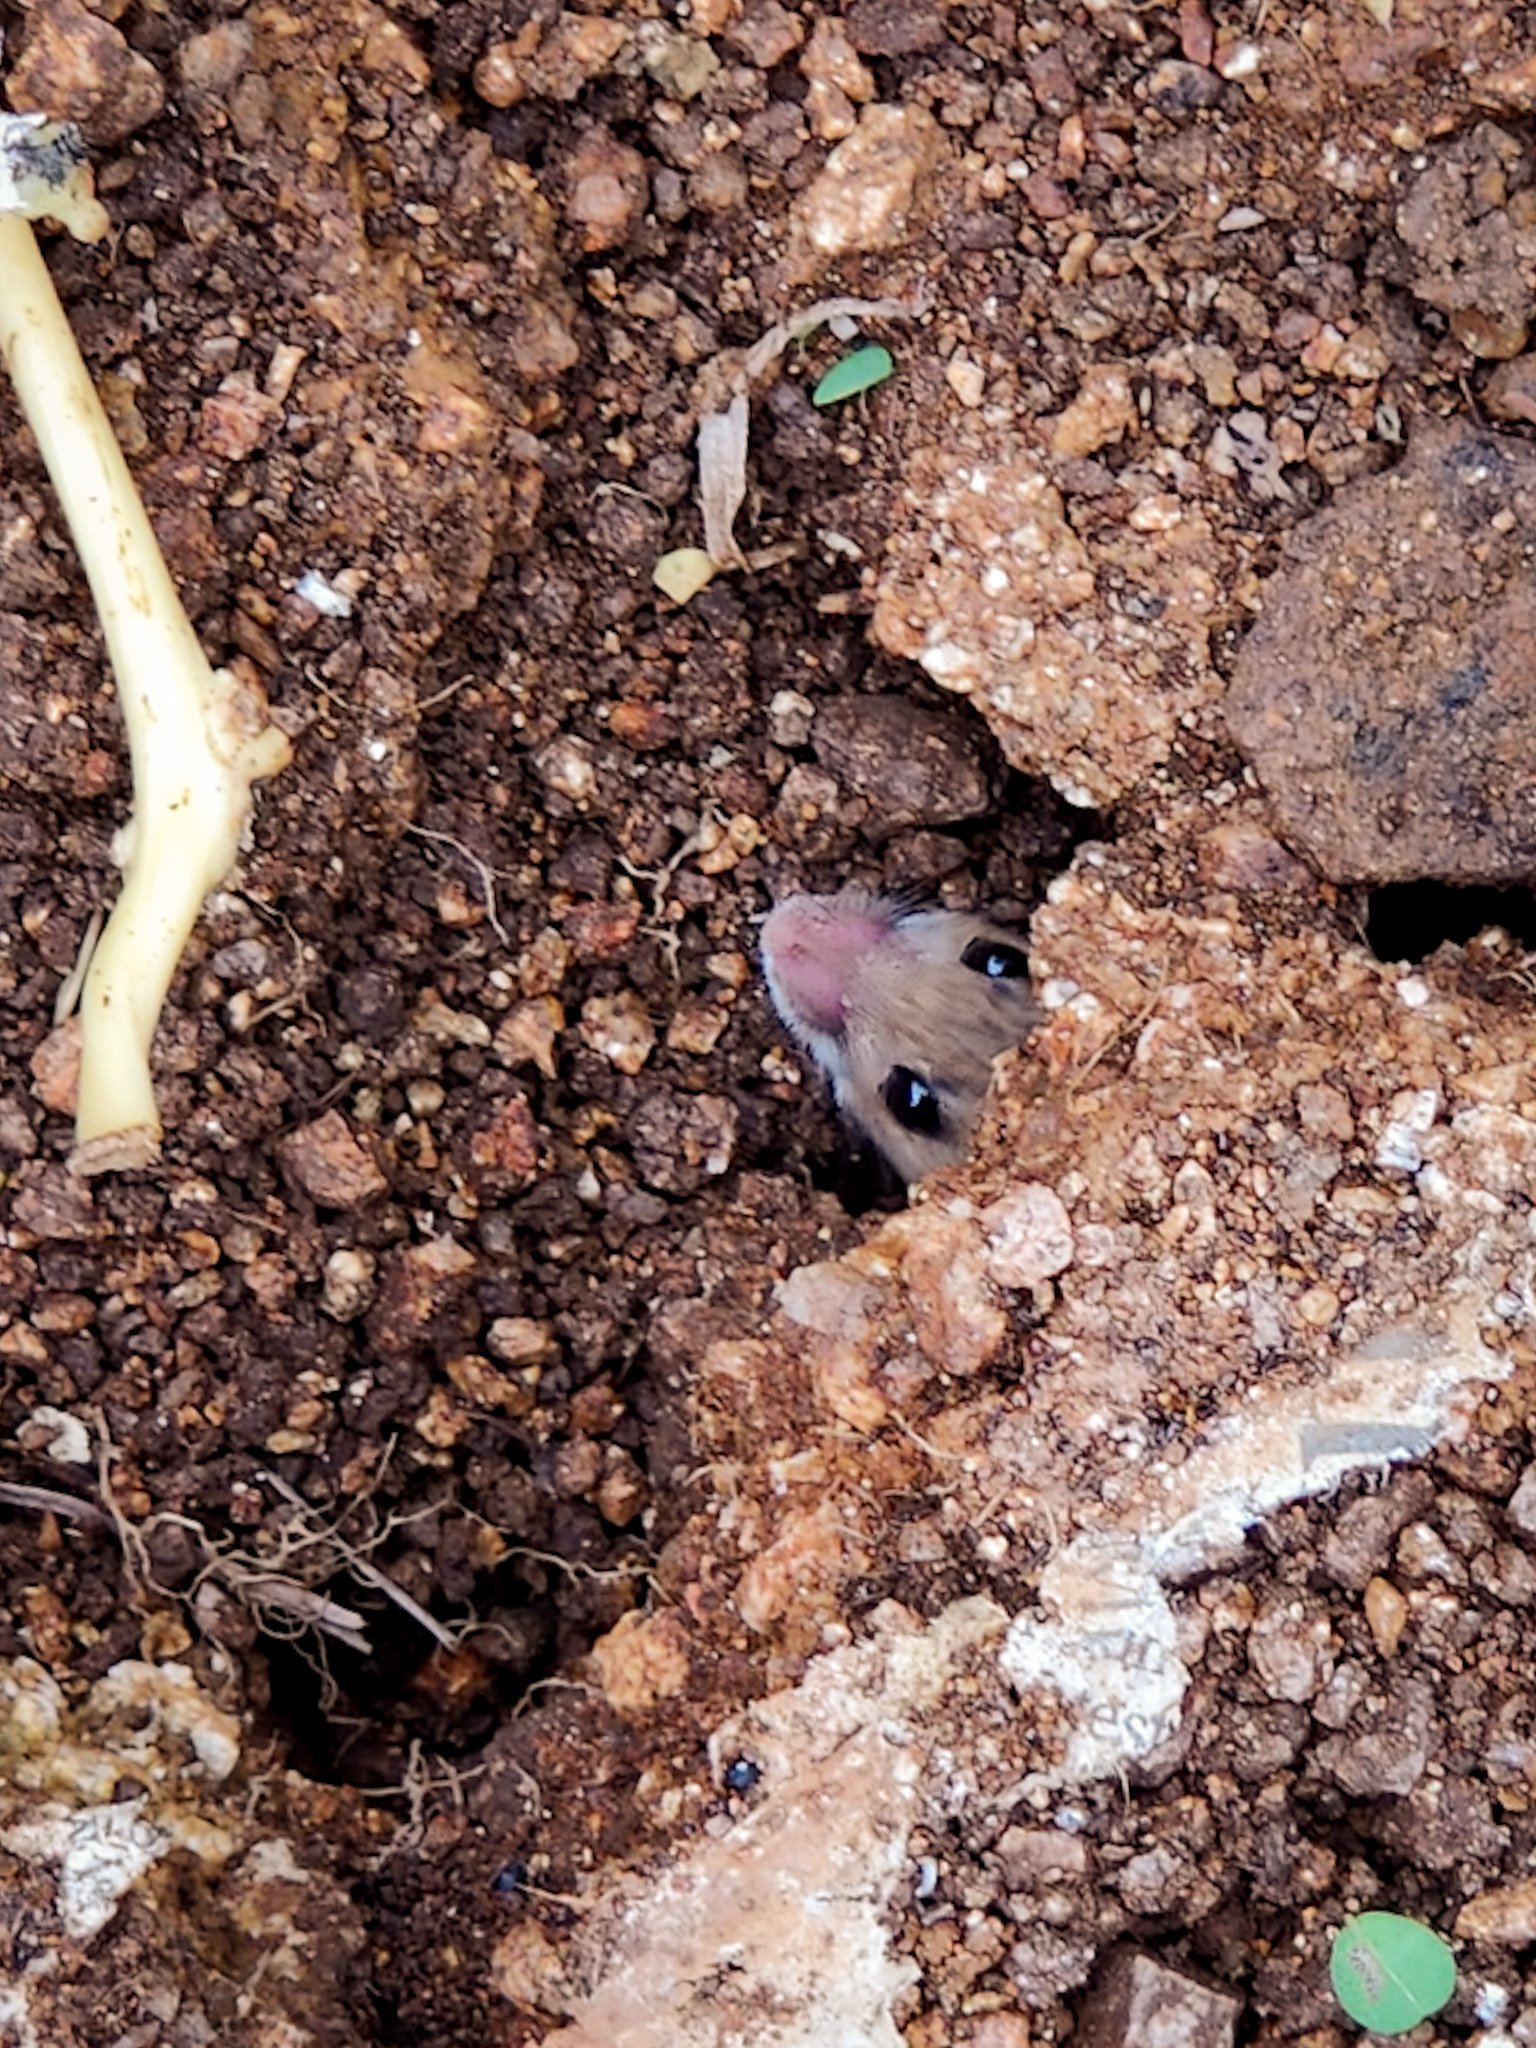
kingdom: Animalia
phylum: Chordata
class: Mammalia
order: Rodentia
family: Muridae
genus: Mus
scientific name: Mus booduga
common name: Little indian field mouse
